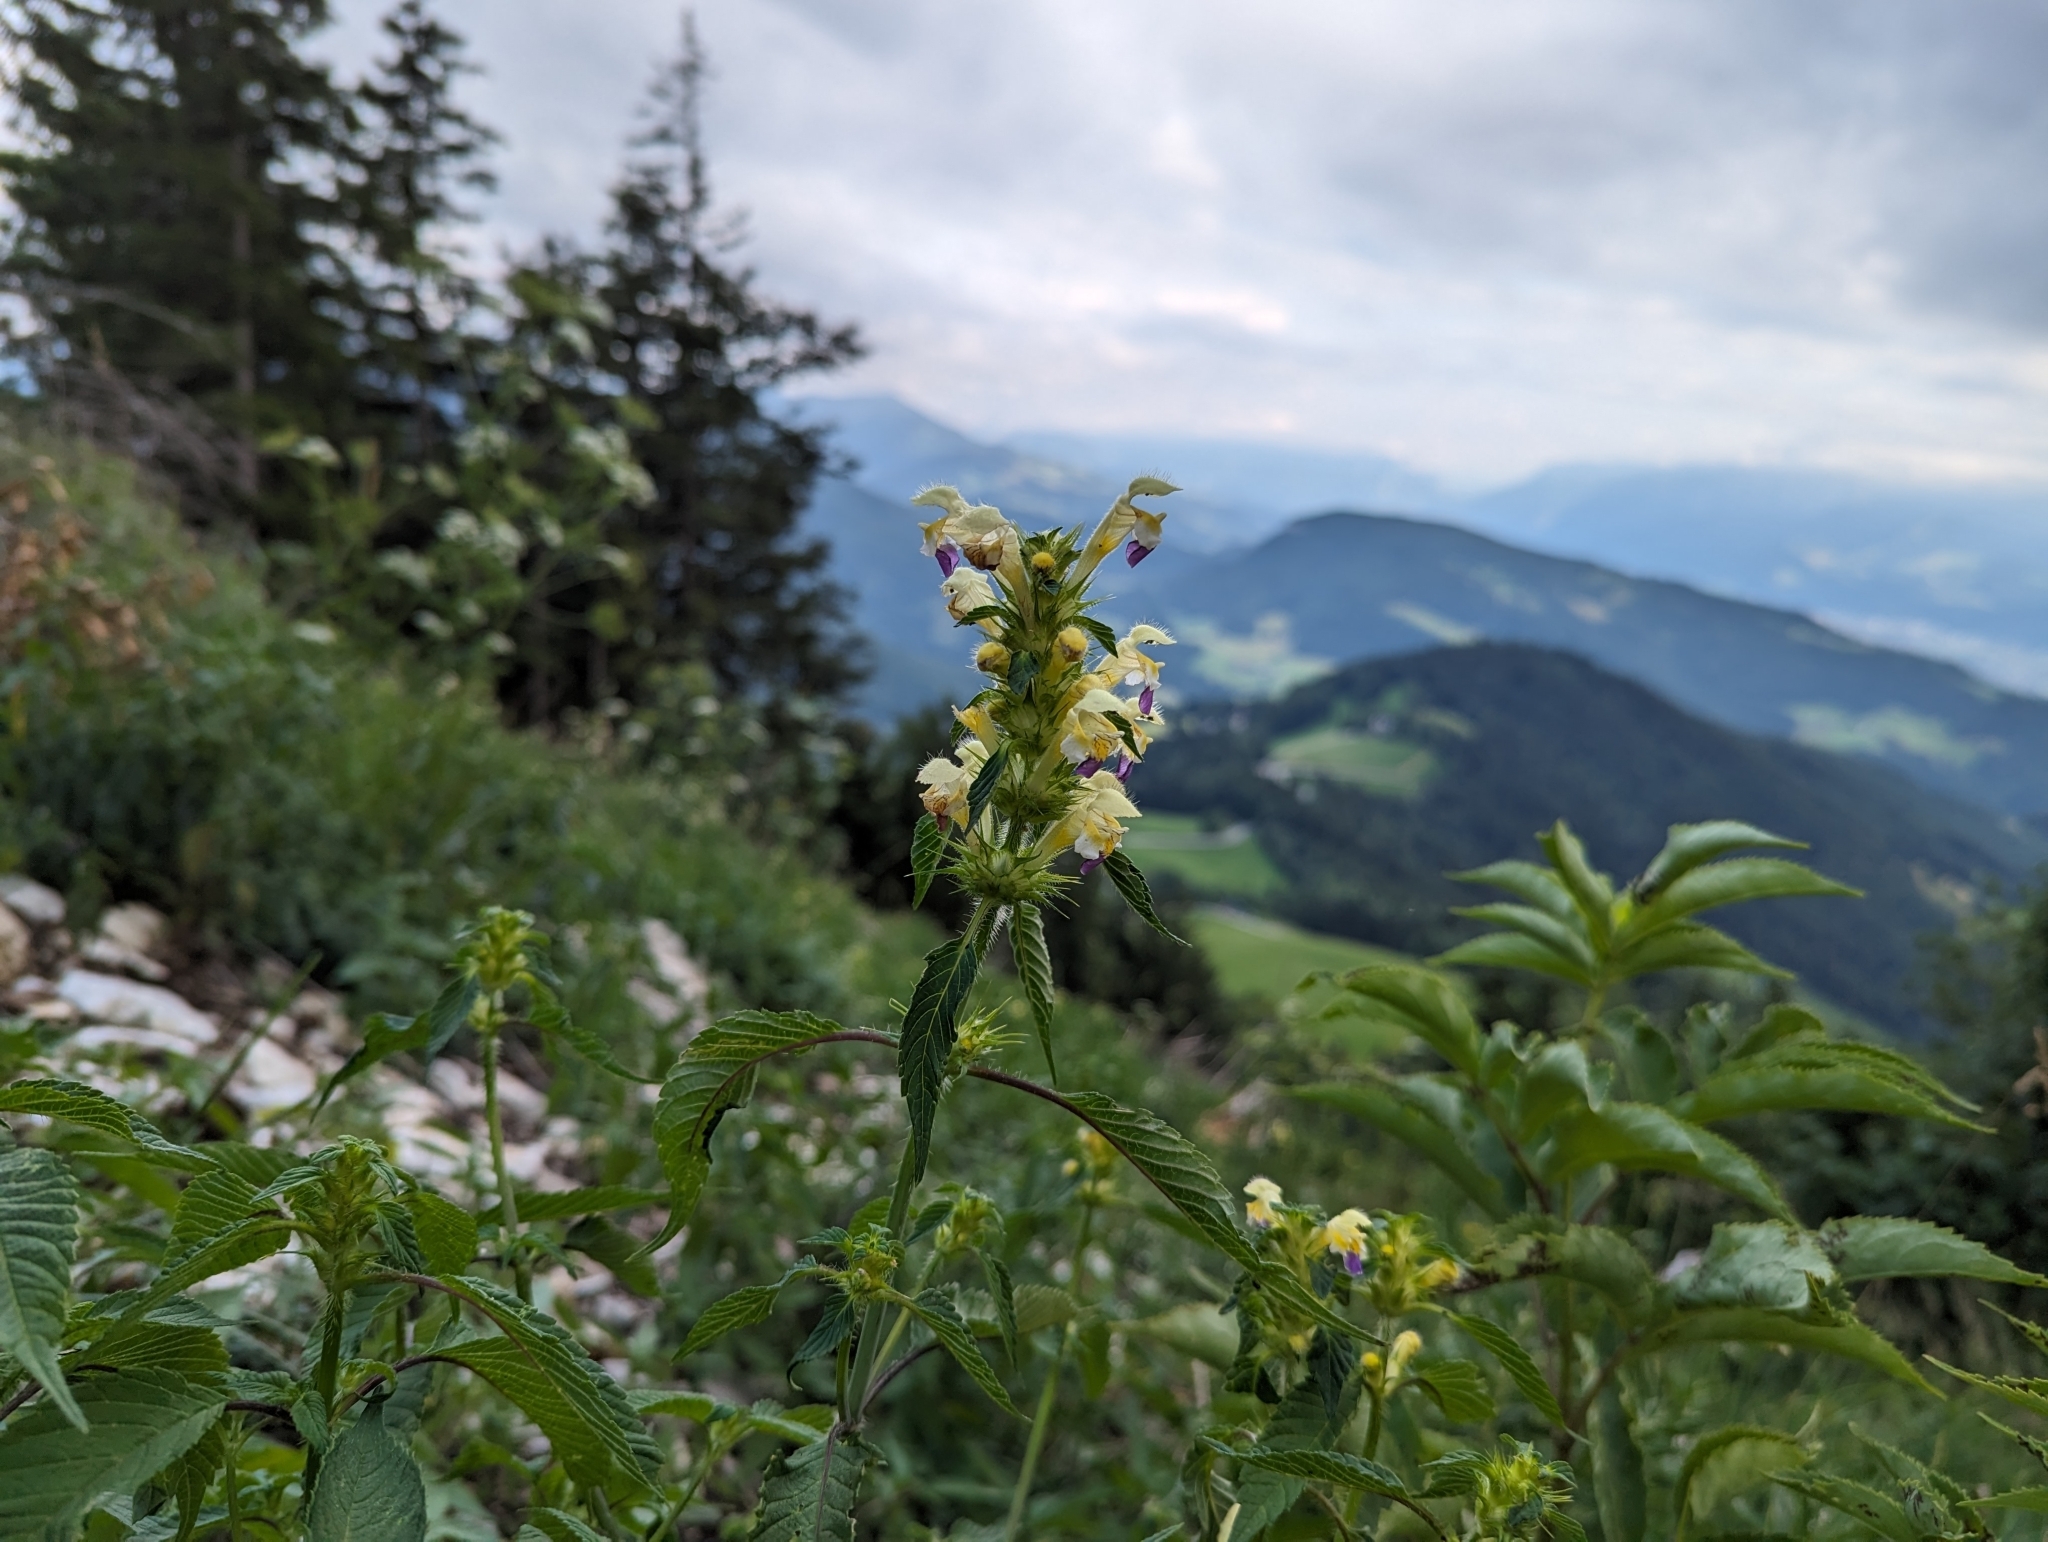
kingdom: Plantae
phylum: Tracheophyta
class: Magnoliopsida
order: Lamiales
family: Lamiaceae
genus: Galeopsis
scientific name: Galeopsis speciosa
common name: Large-flowered hemp-nettle
